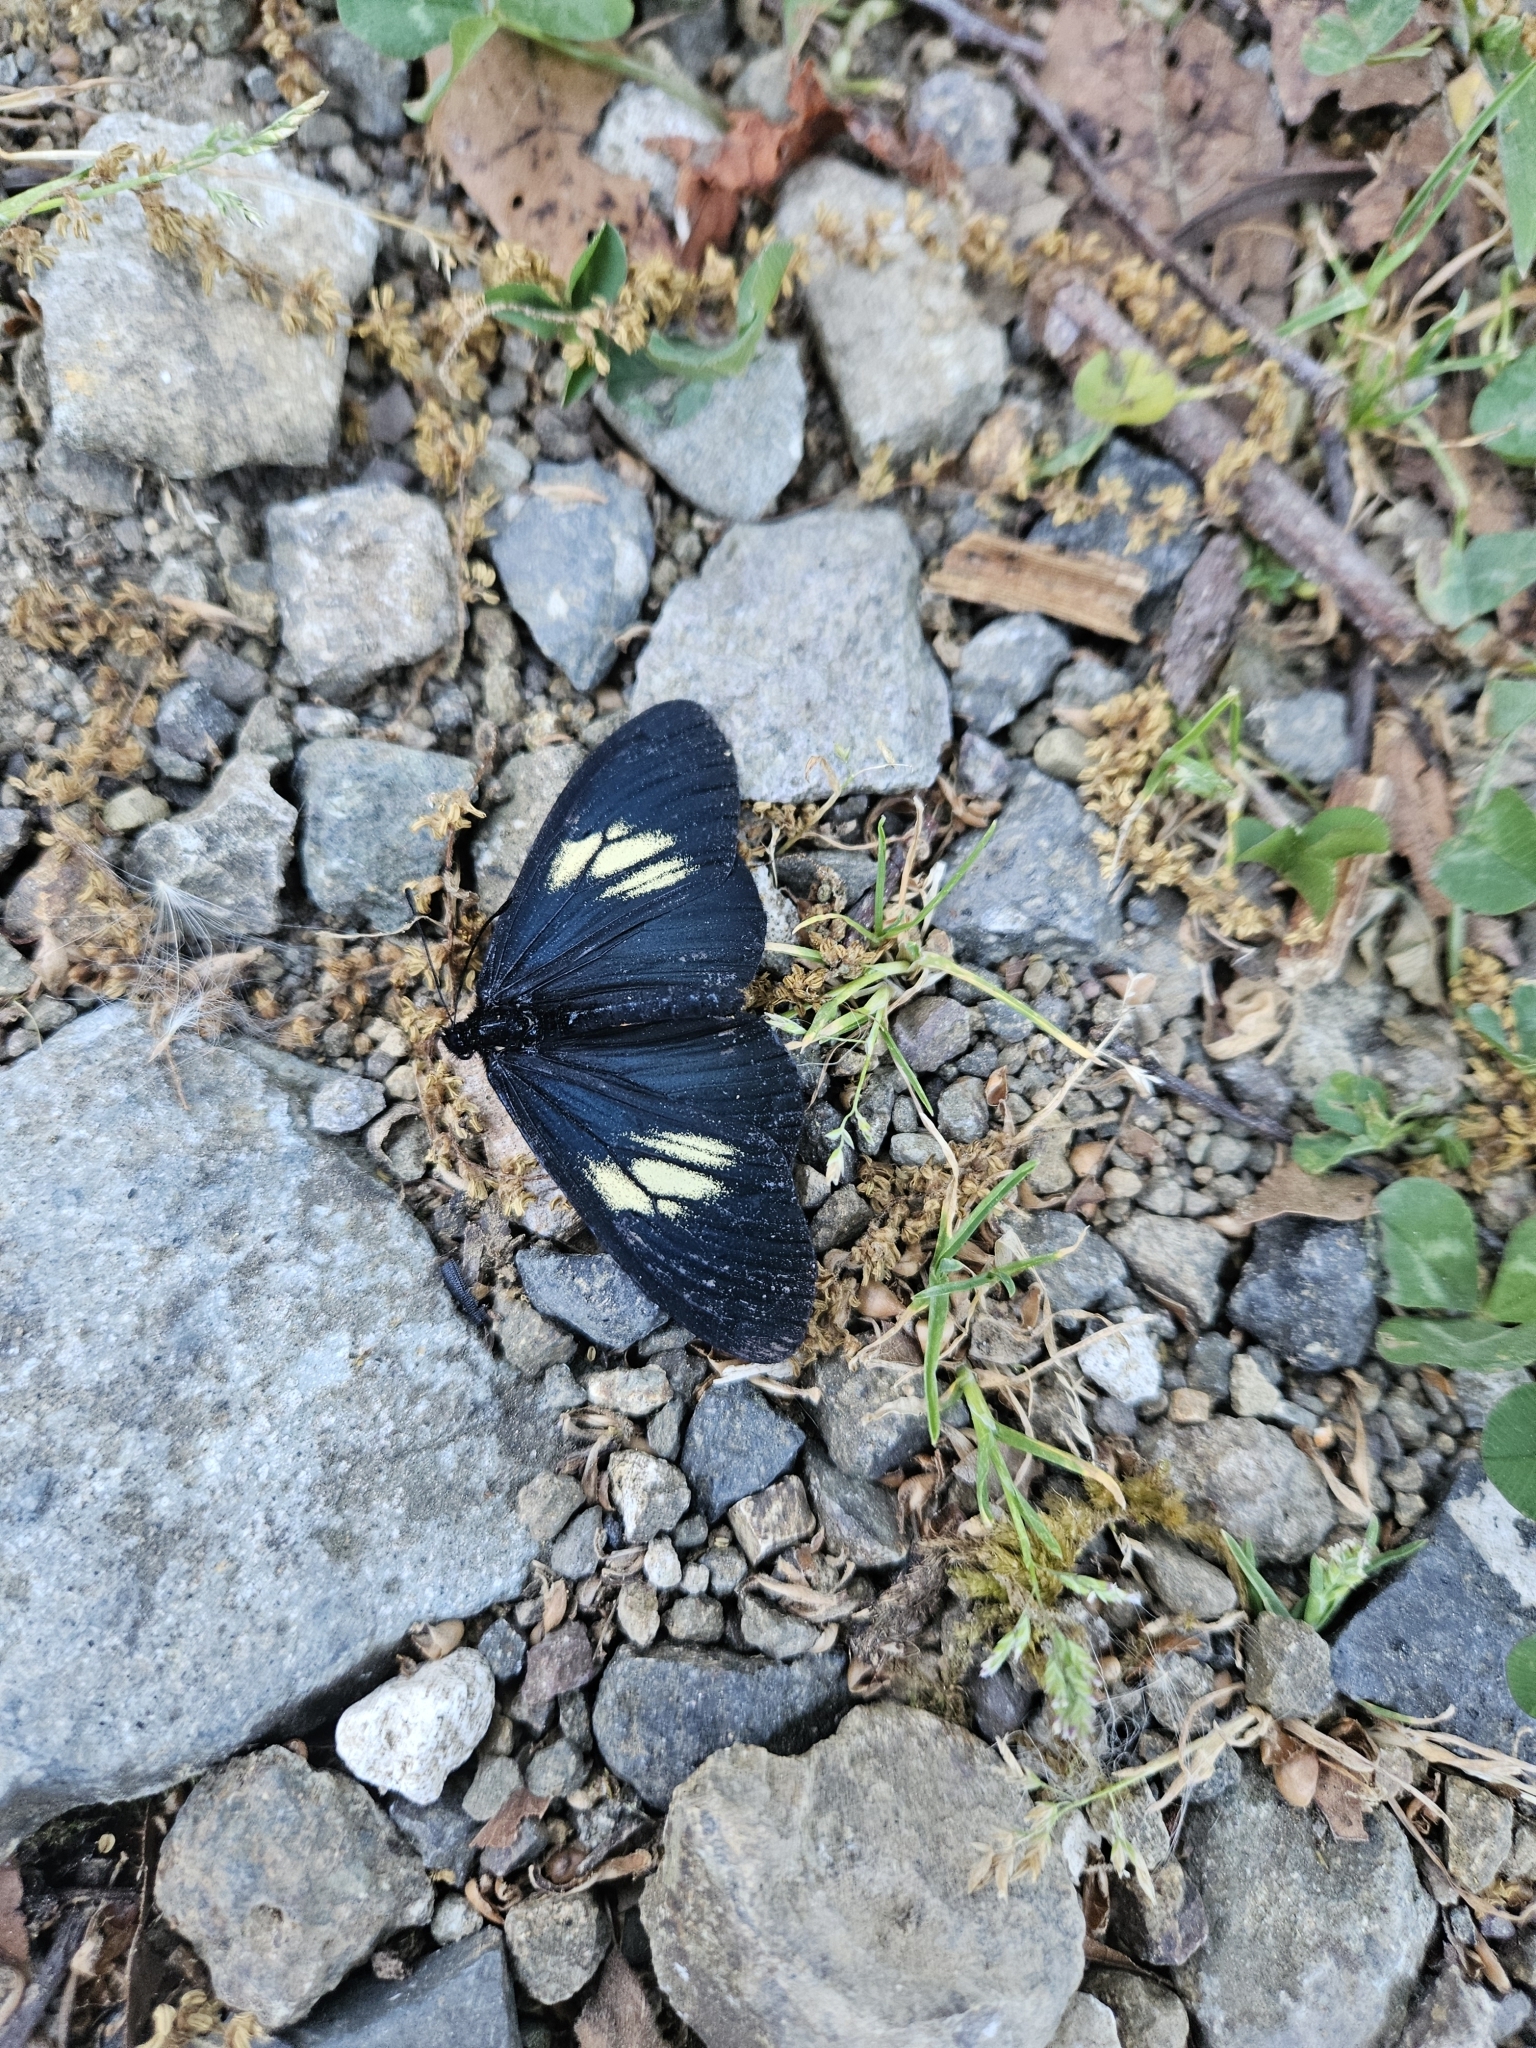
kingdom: Animalia
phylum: Arthropoda
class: Insecta
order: Lepidoptera
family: Nymphalidae
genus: Acraea
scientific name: Acraea Altinote ozomene
